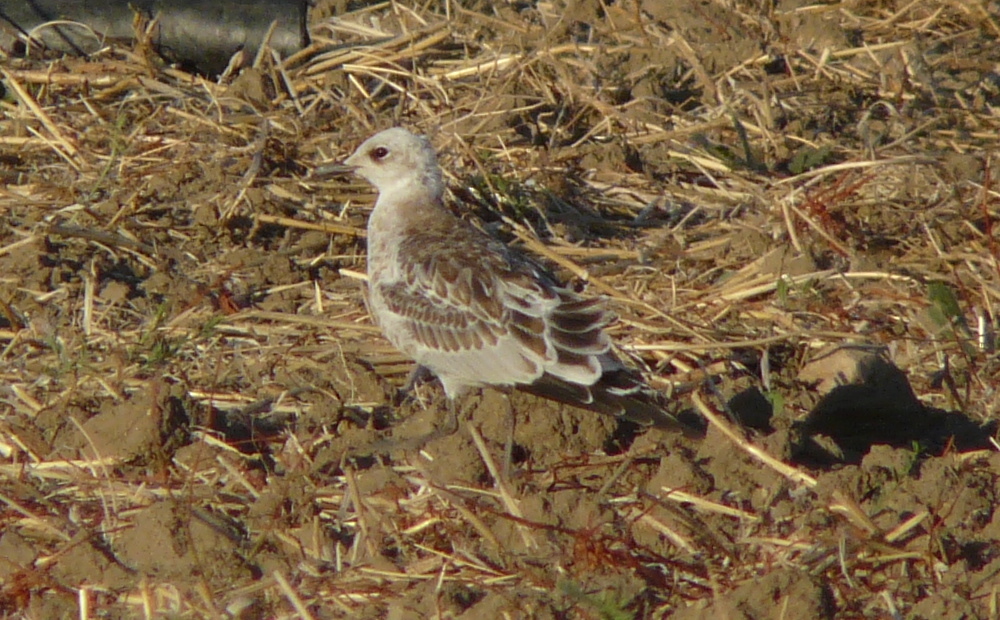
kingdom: Animalia
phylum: Chordata
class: Aves
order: Charadriiformes
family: Laridae
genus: Ichthyaetus
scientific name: Ichthyaetus melanocephalus
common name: Mediterranean gull
